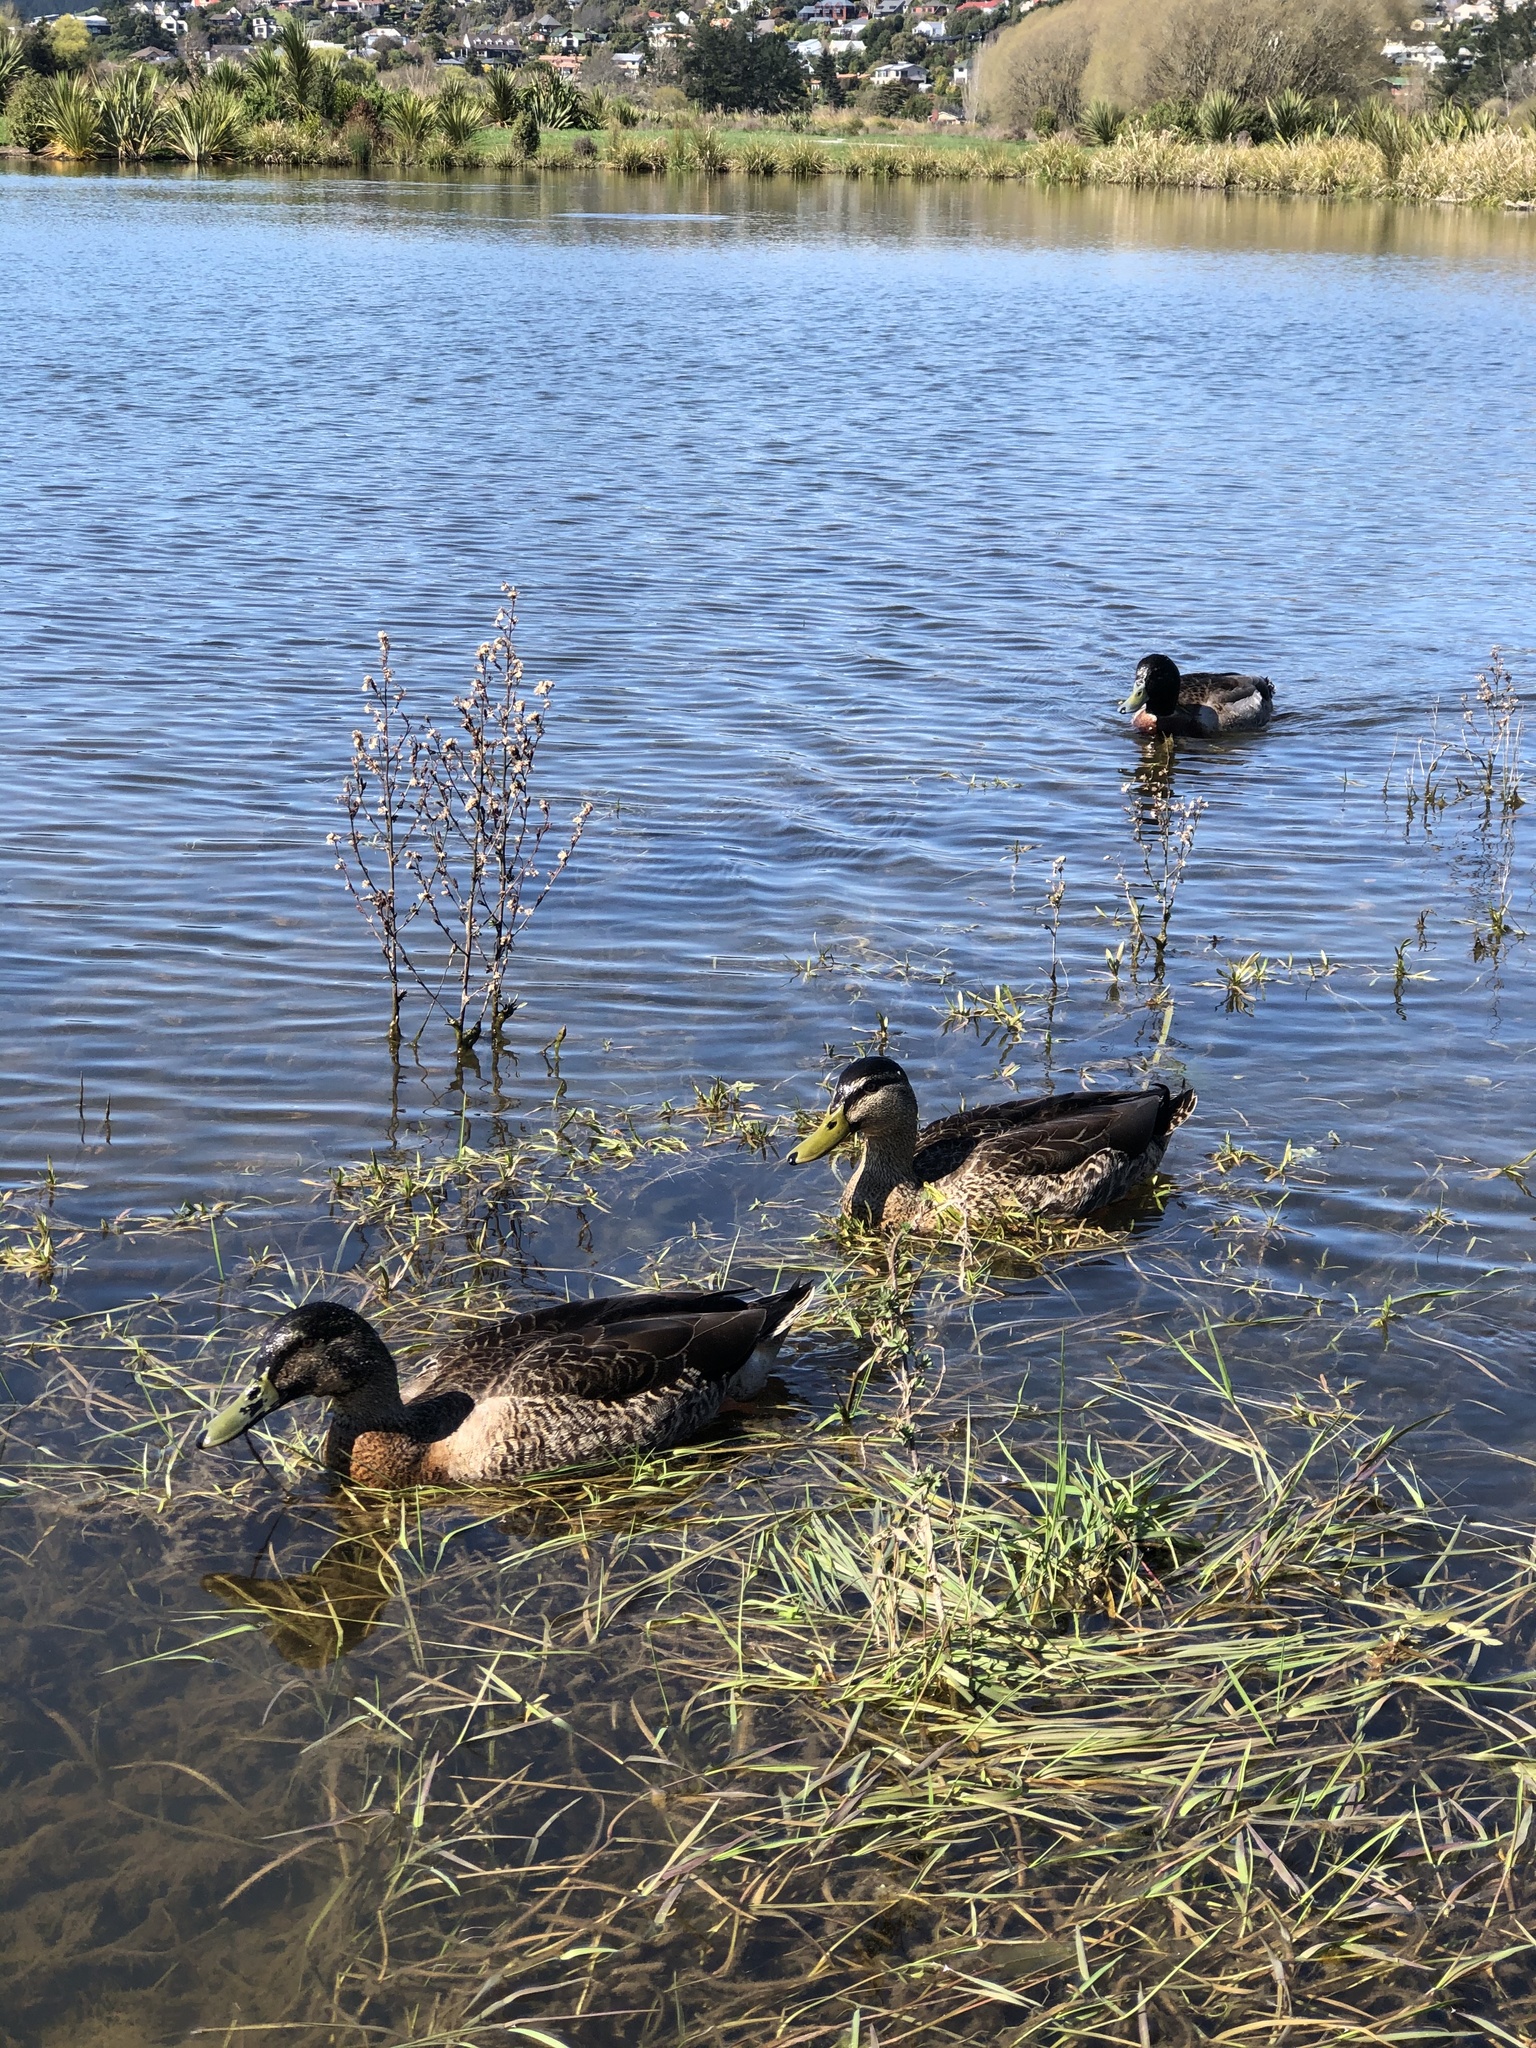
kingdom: Animalia
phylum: Chordata
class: Aves
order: Anseriformes
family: Anatidae
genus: Anas
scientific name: Anas platyrhynchos
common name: Mallard
